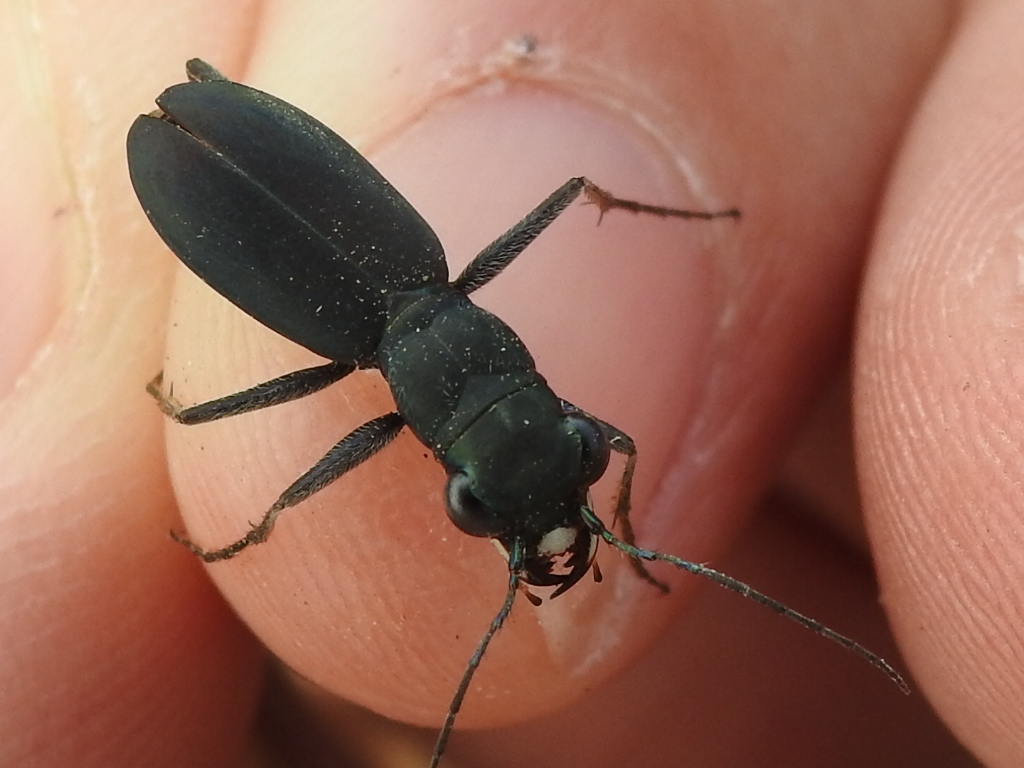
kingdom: Animalia
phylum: Arthropoda
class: Insecta
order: Coleoptera
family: Carabidae
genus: Dromochorus
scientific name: Dromochorus pruininus
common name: Frosted dromo tiger beetle
